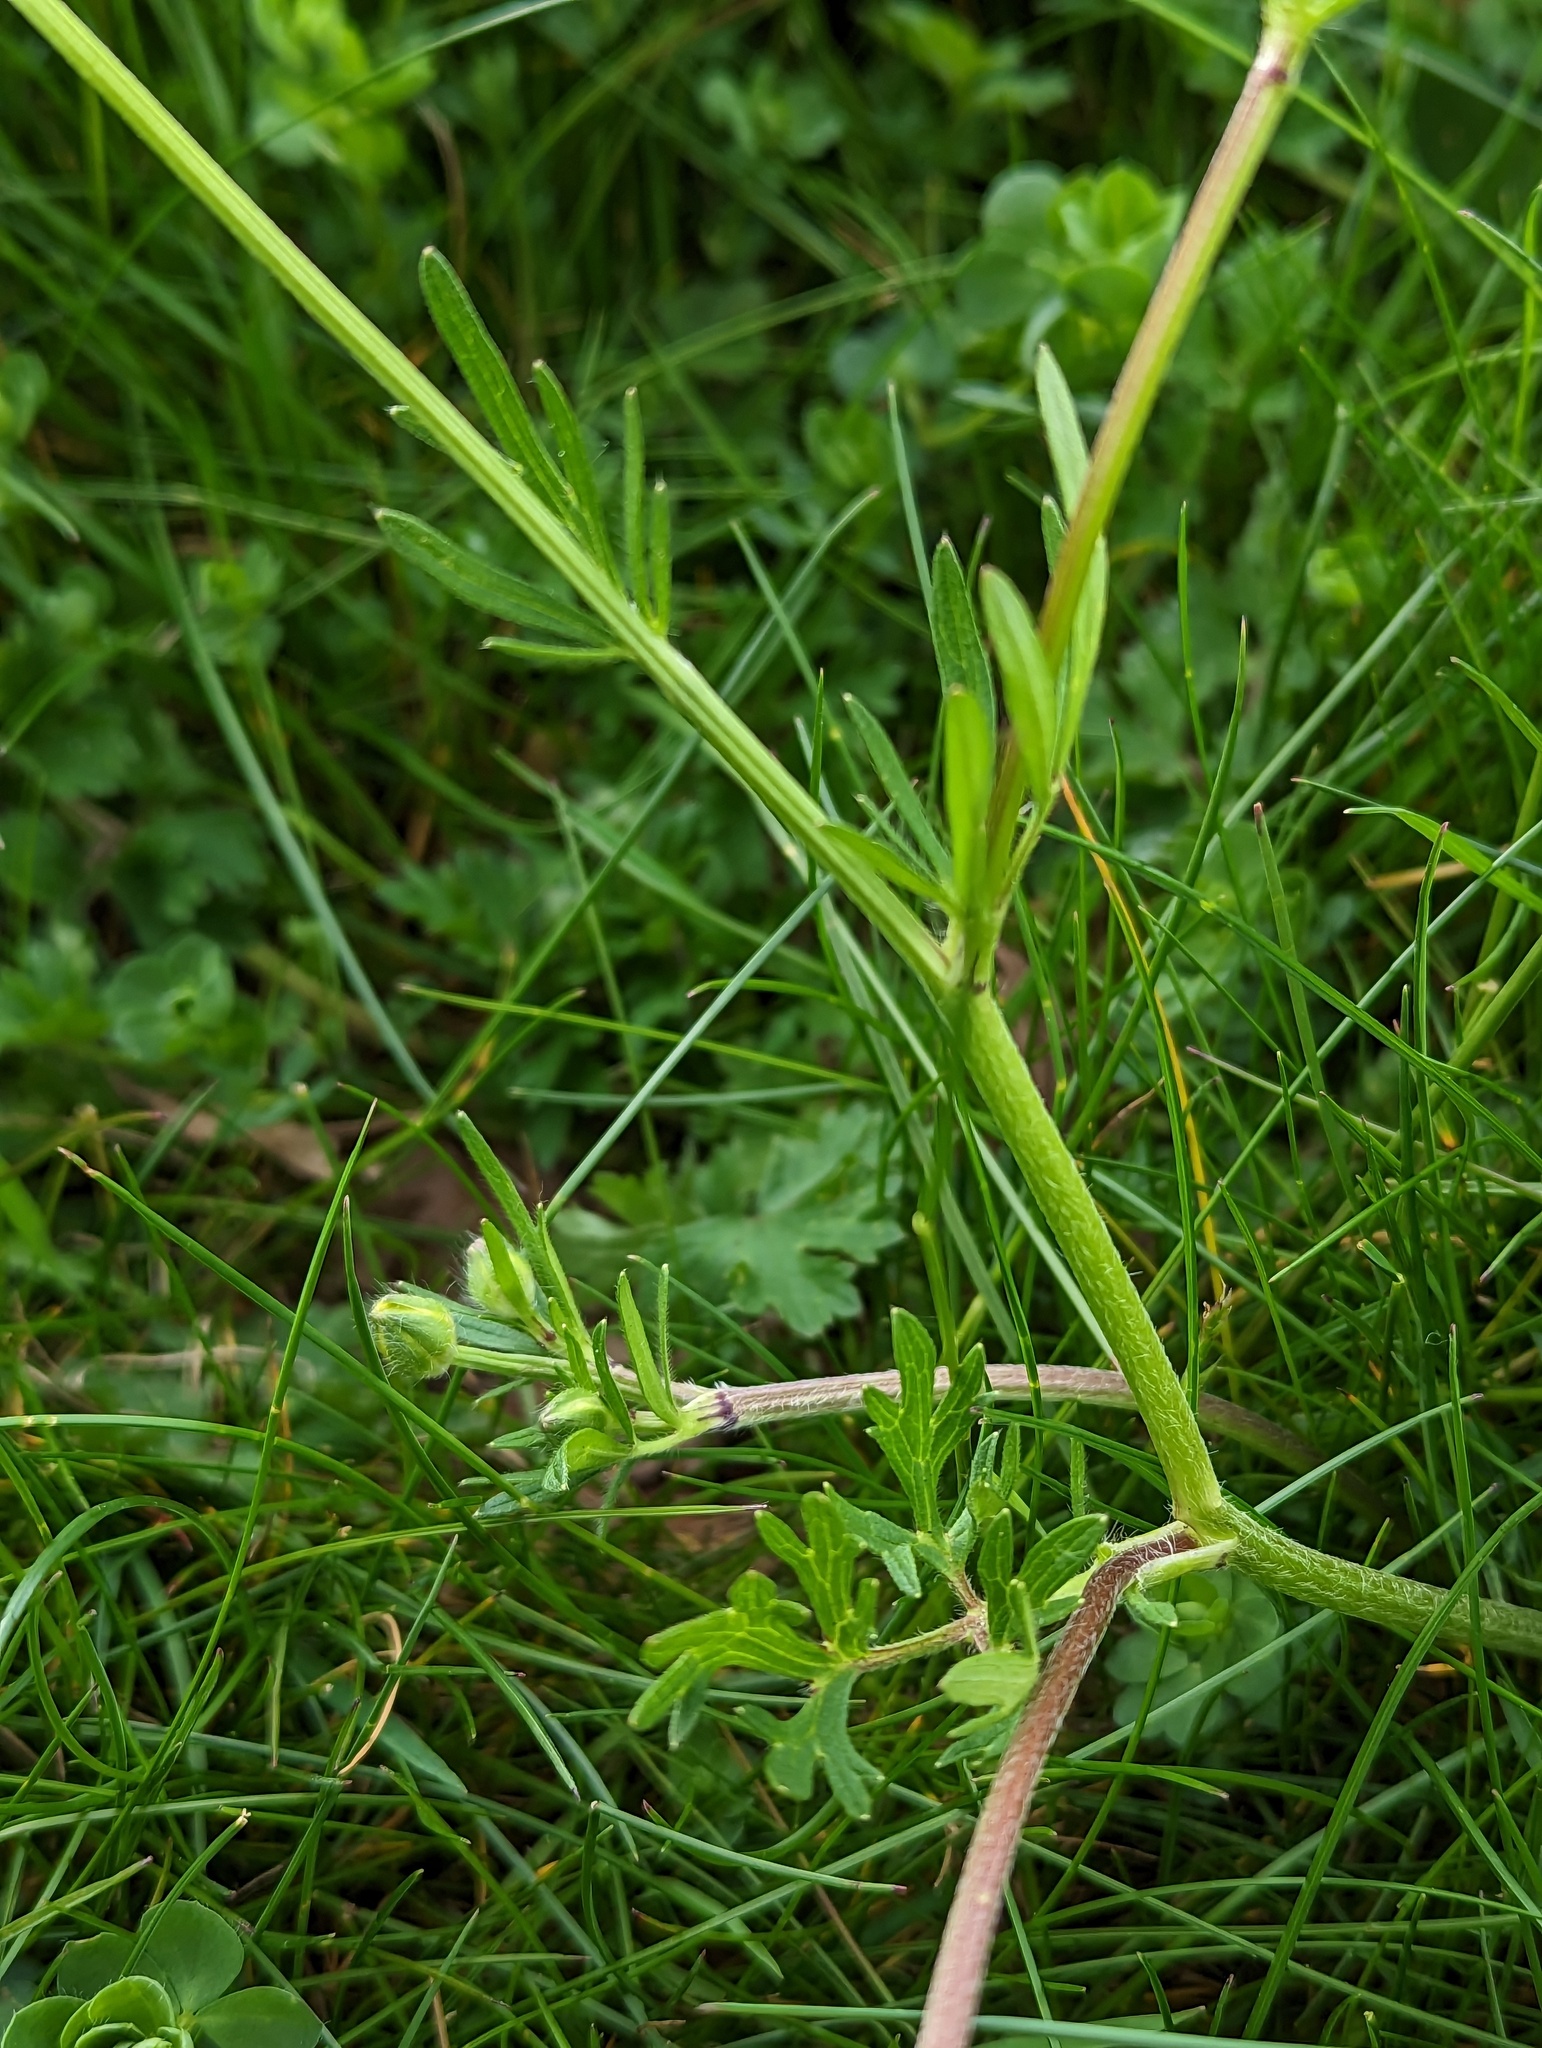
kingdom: Plantae
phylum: Tracheophyta
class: Magnoliopsida
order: Ranunculales
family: Ranunculaceae
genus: Ranunculus
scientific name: Ranunculus bulbosus
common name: Bulbous buttercup
